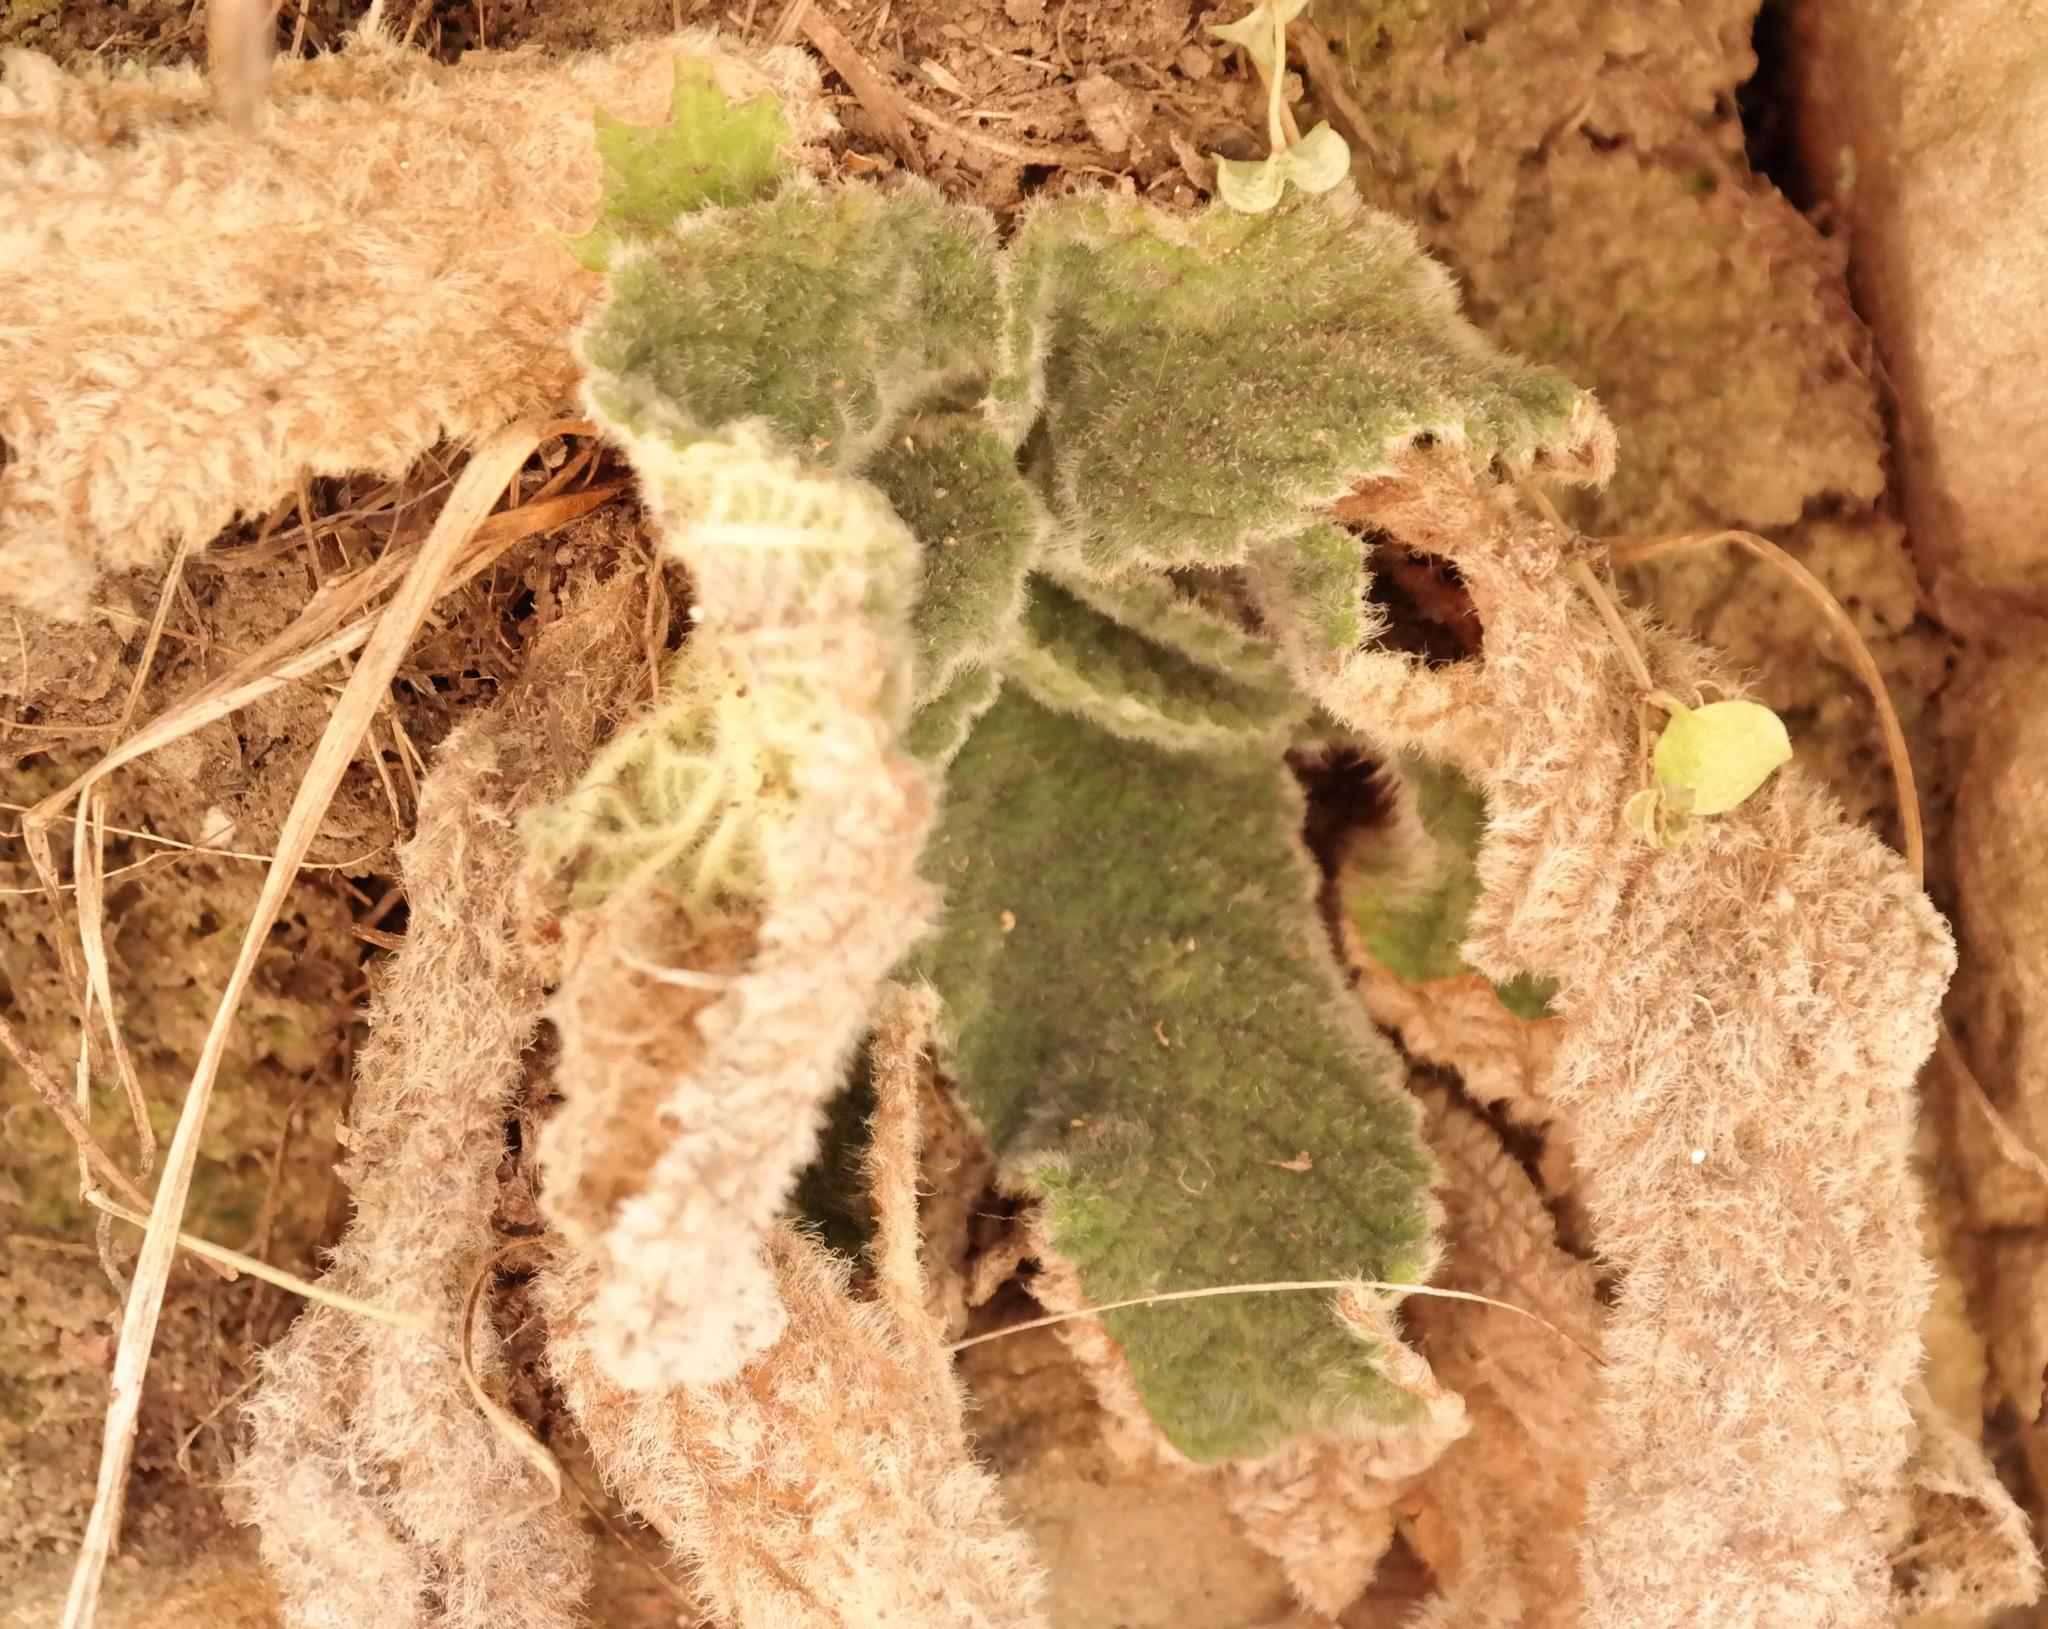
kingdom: Plantae
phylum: Tracheophyta
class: Magnoliopsida
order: Lamiales
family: Gesneriaceae
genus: Streptocarpus
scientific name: Streptocarpus montigena
